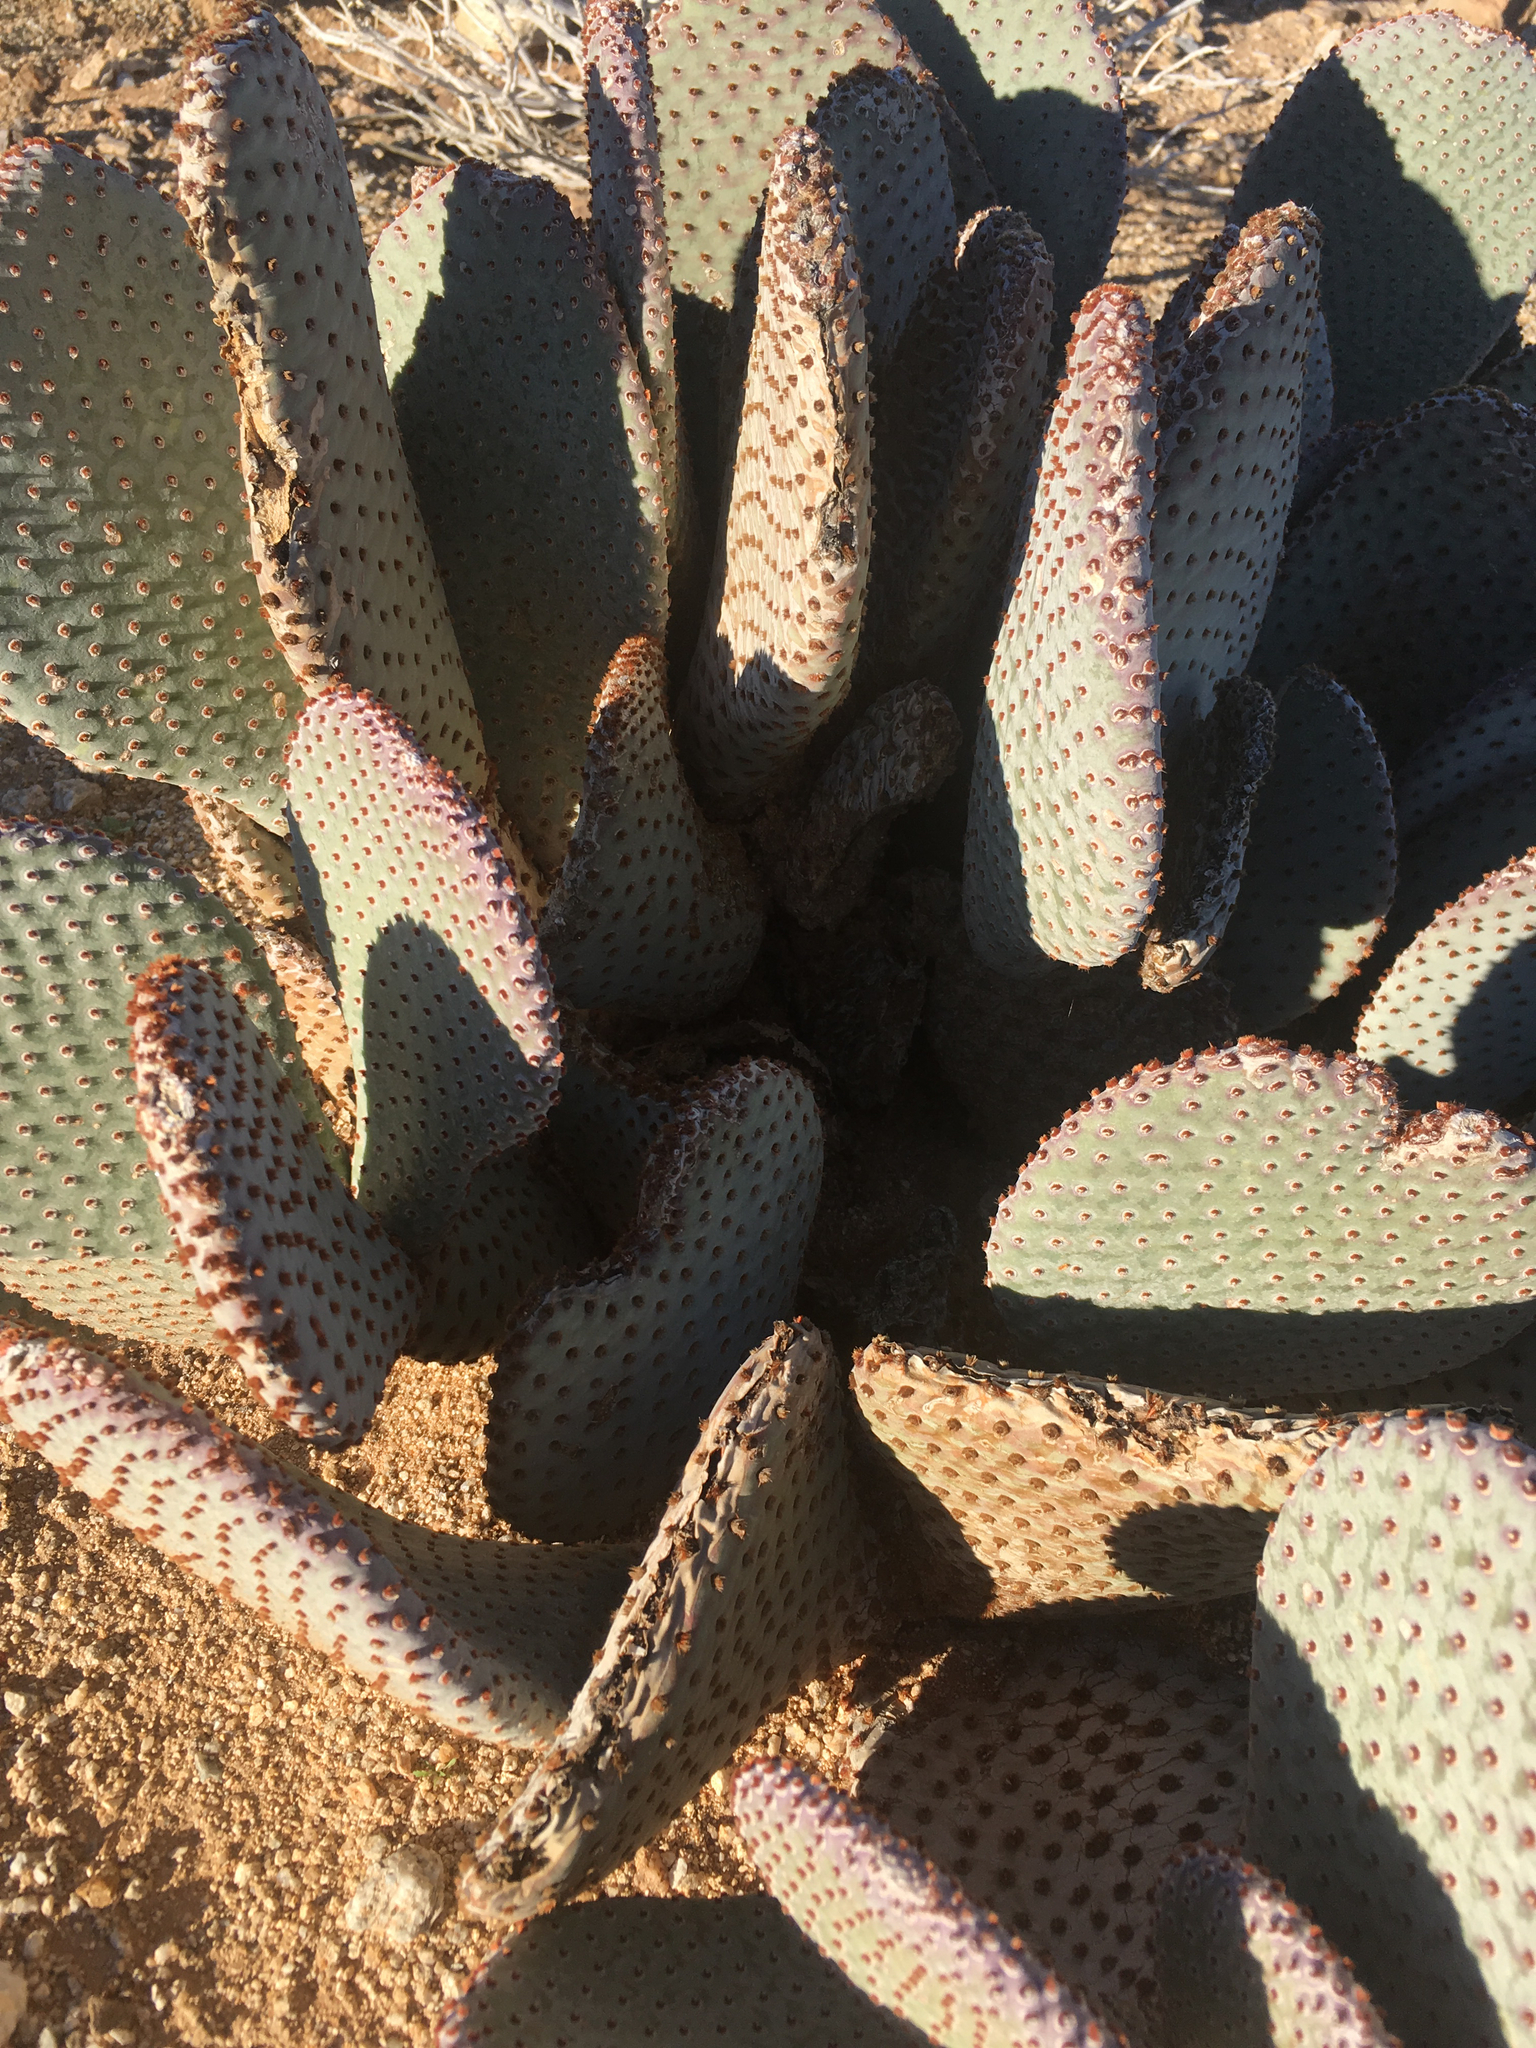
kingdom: Plantae
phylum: Tracheophyta
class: Magnoliopsida
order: Caryophyllales
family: Cactaceae
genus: Opuntia
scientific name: Opuntia basilaris
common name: Beavertail prickly-pear
